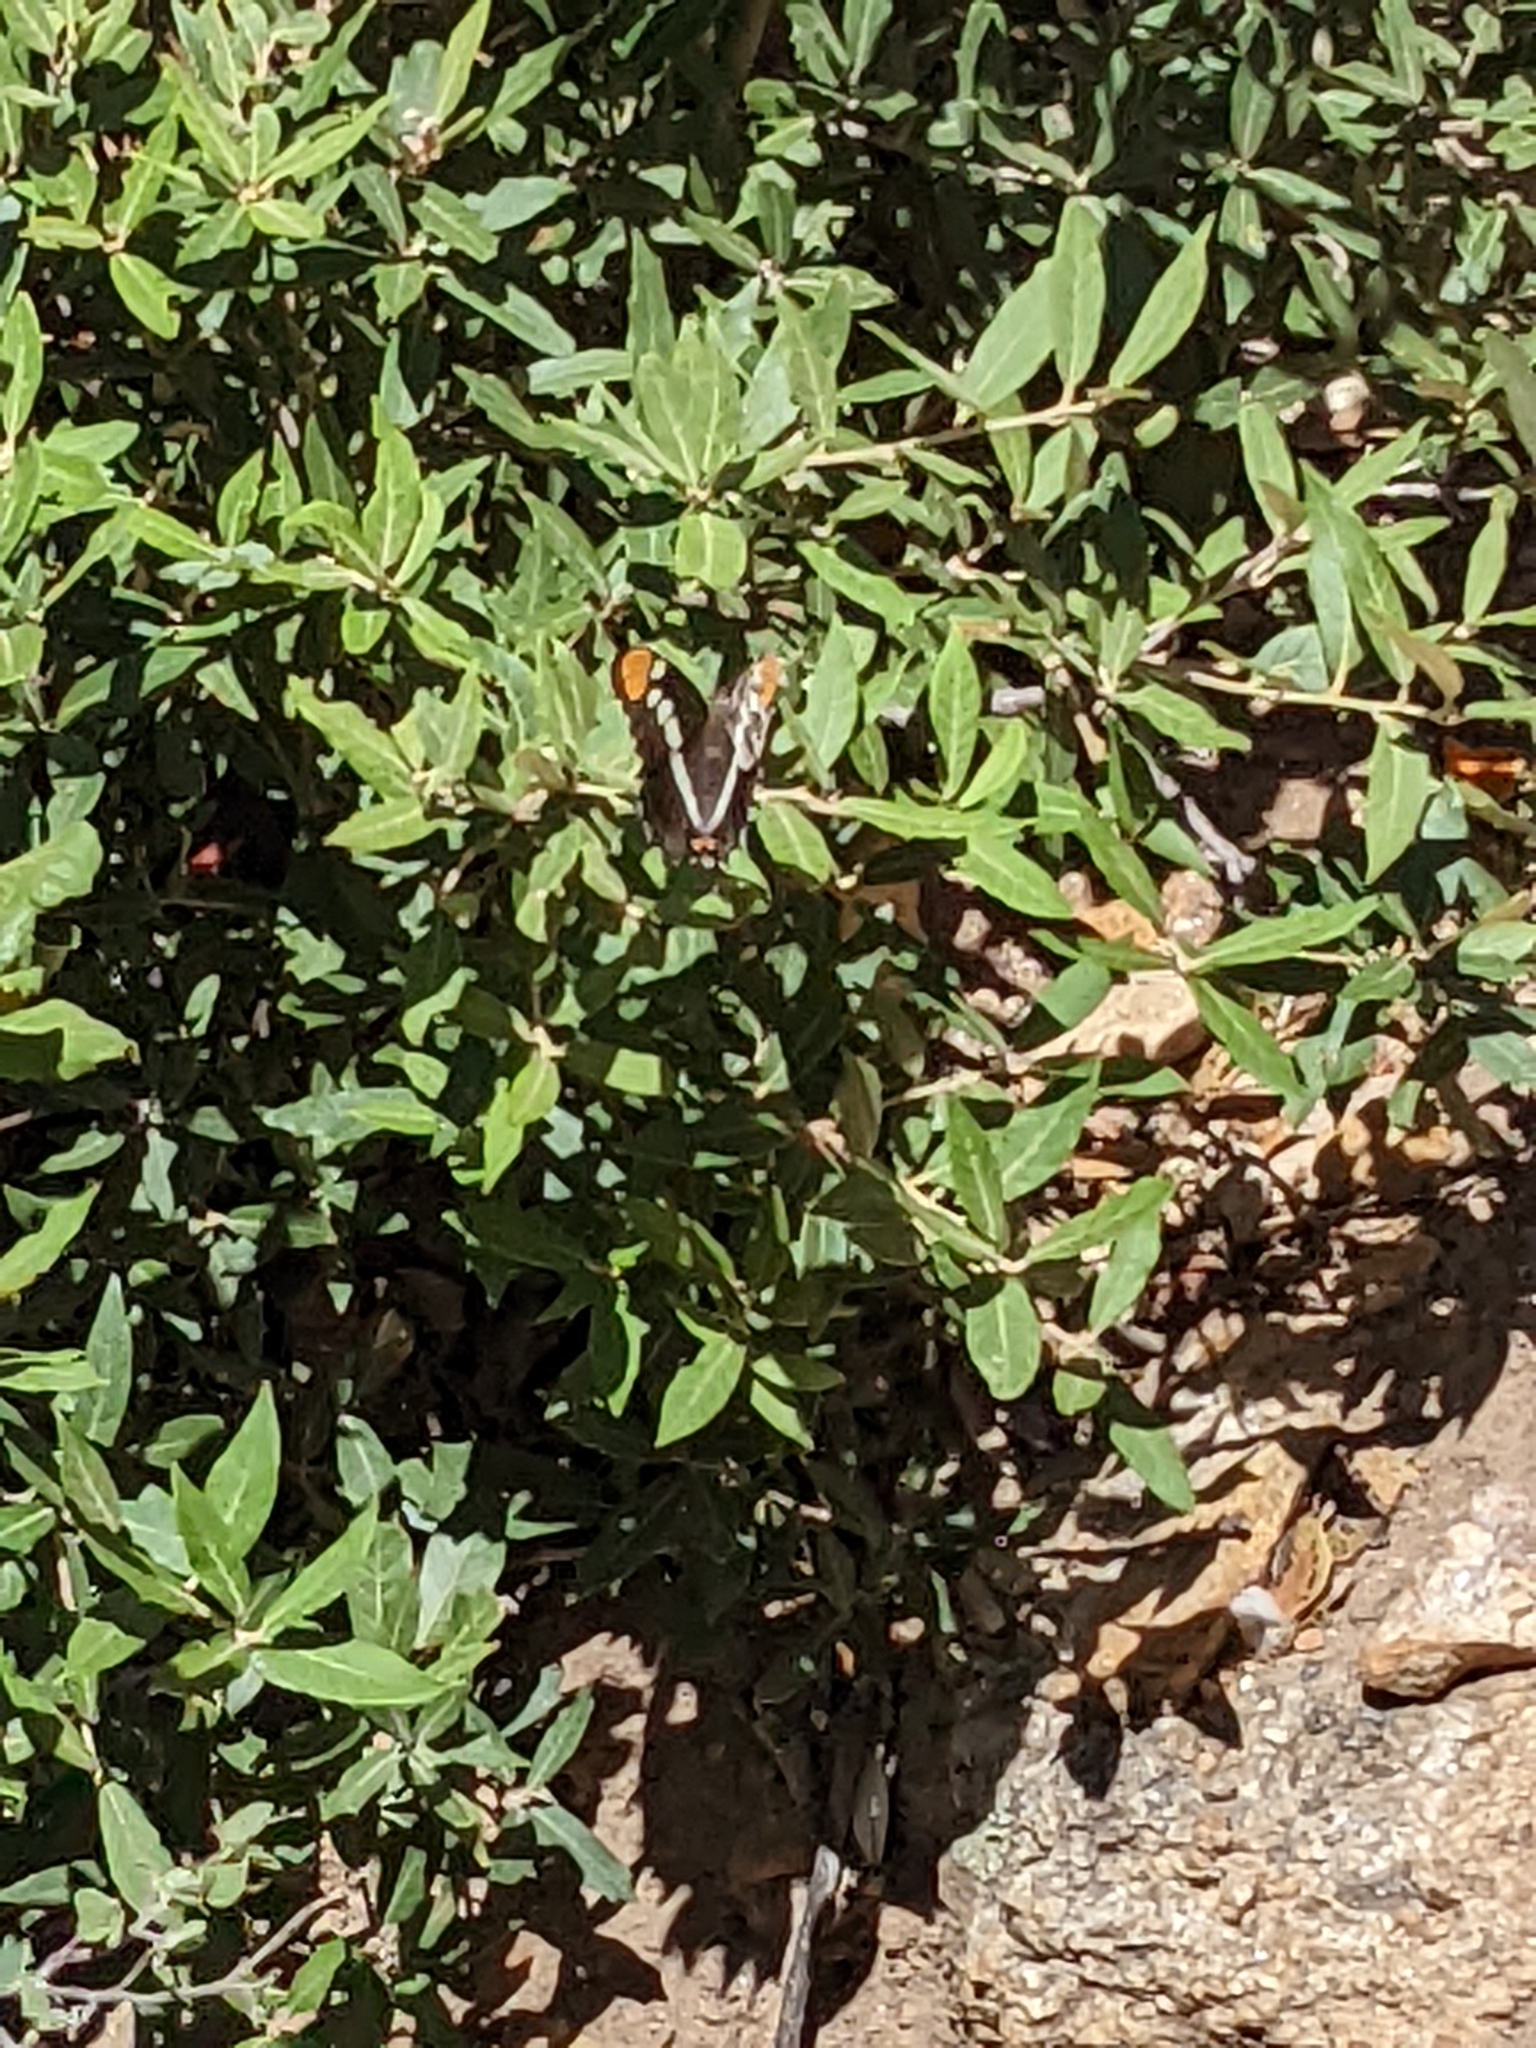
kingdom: Animalia
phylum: Arthropoda
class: Insecta
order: Lepidoptera
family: Nymphalidae
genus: Limenitis
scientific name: Limenitis bredowii
